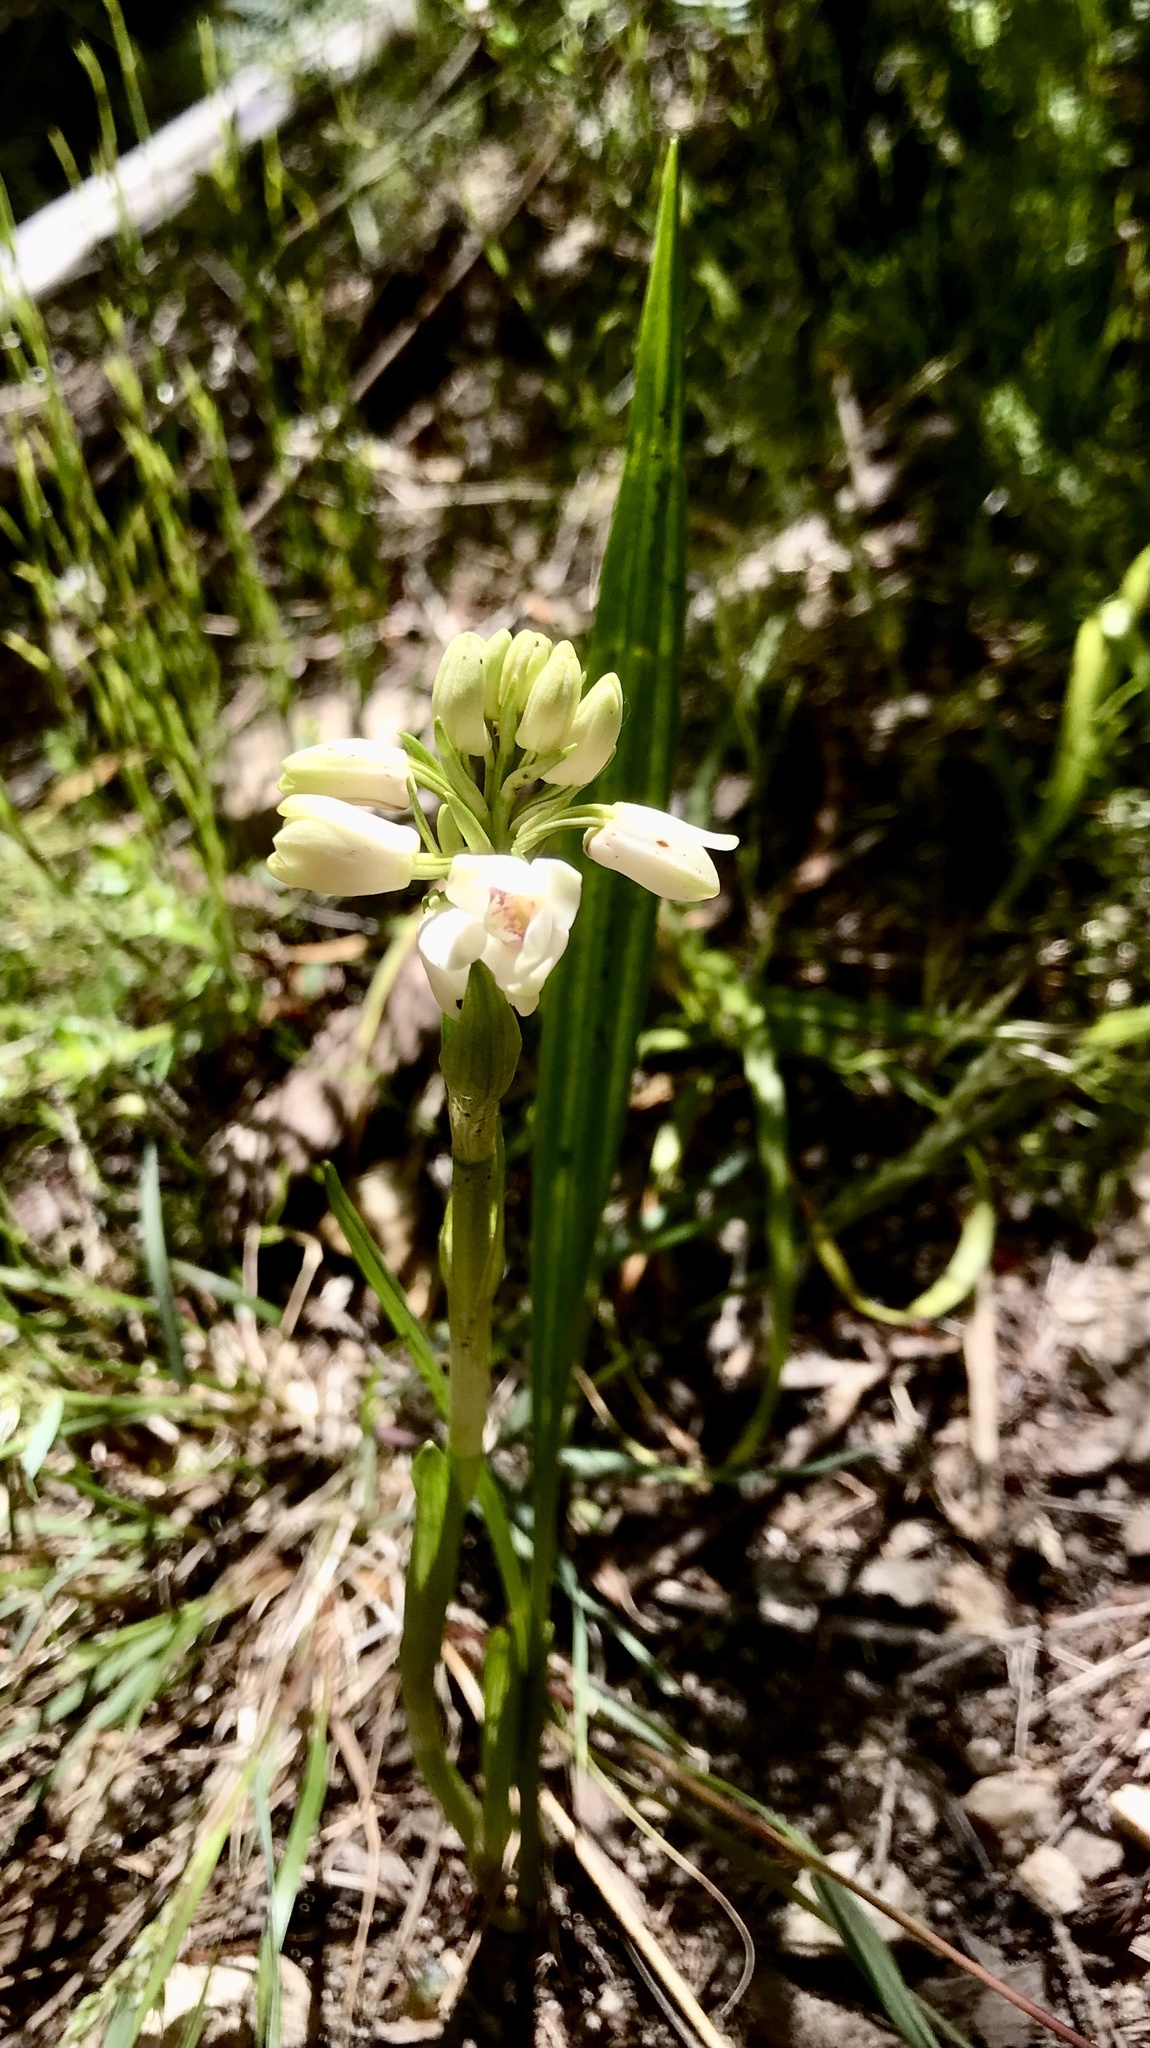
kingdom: Plantae
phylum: Tracheophyta
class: Liliopsida
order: Asparagales
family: Orchidaceae
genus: Eulophia
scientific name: Eulophia aculeata
